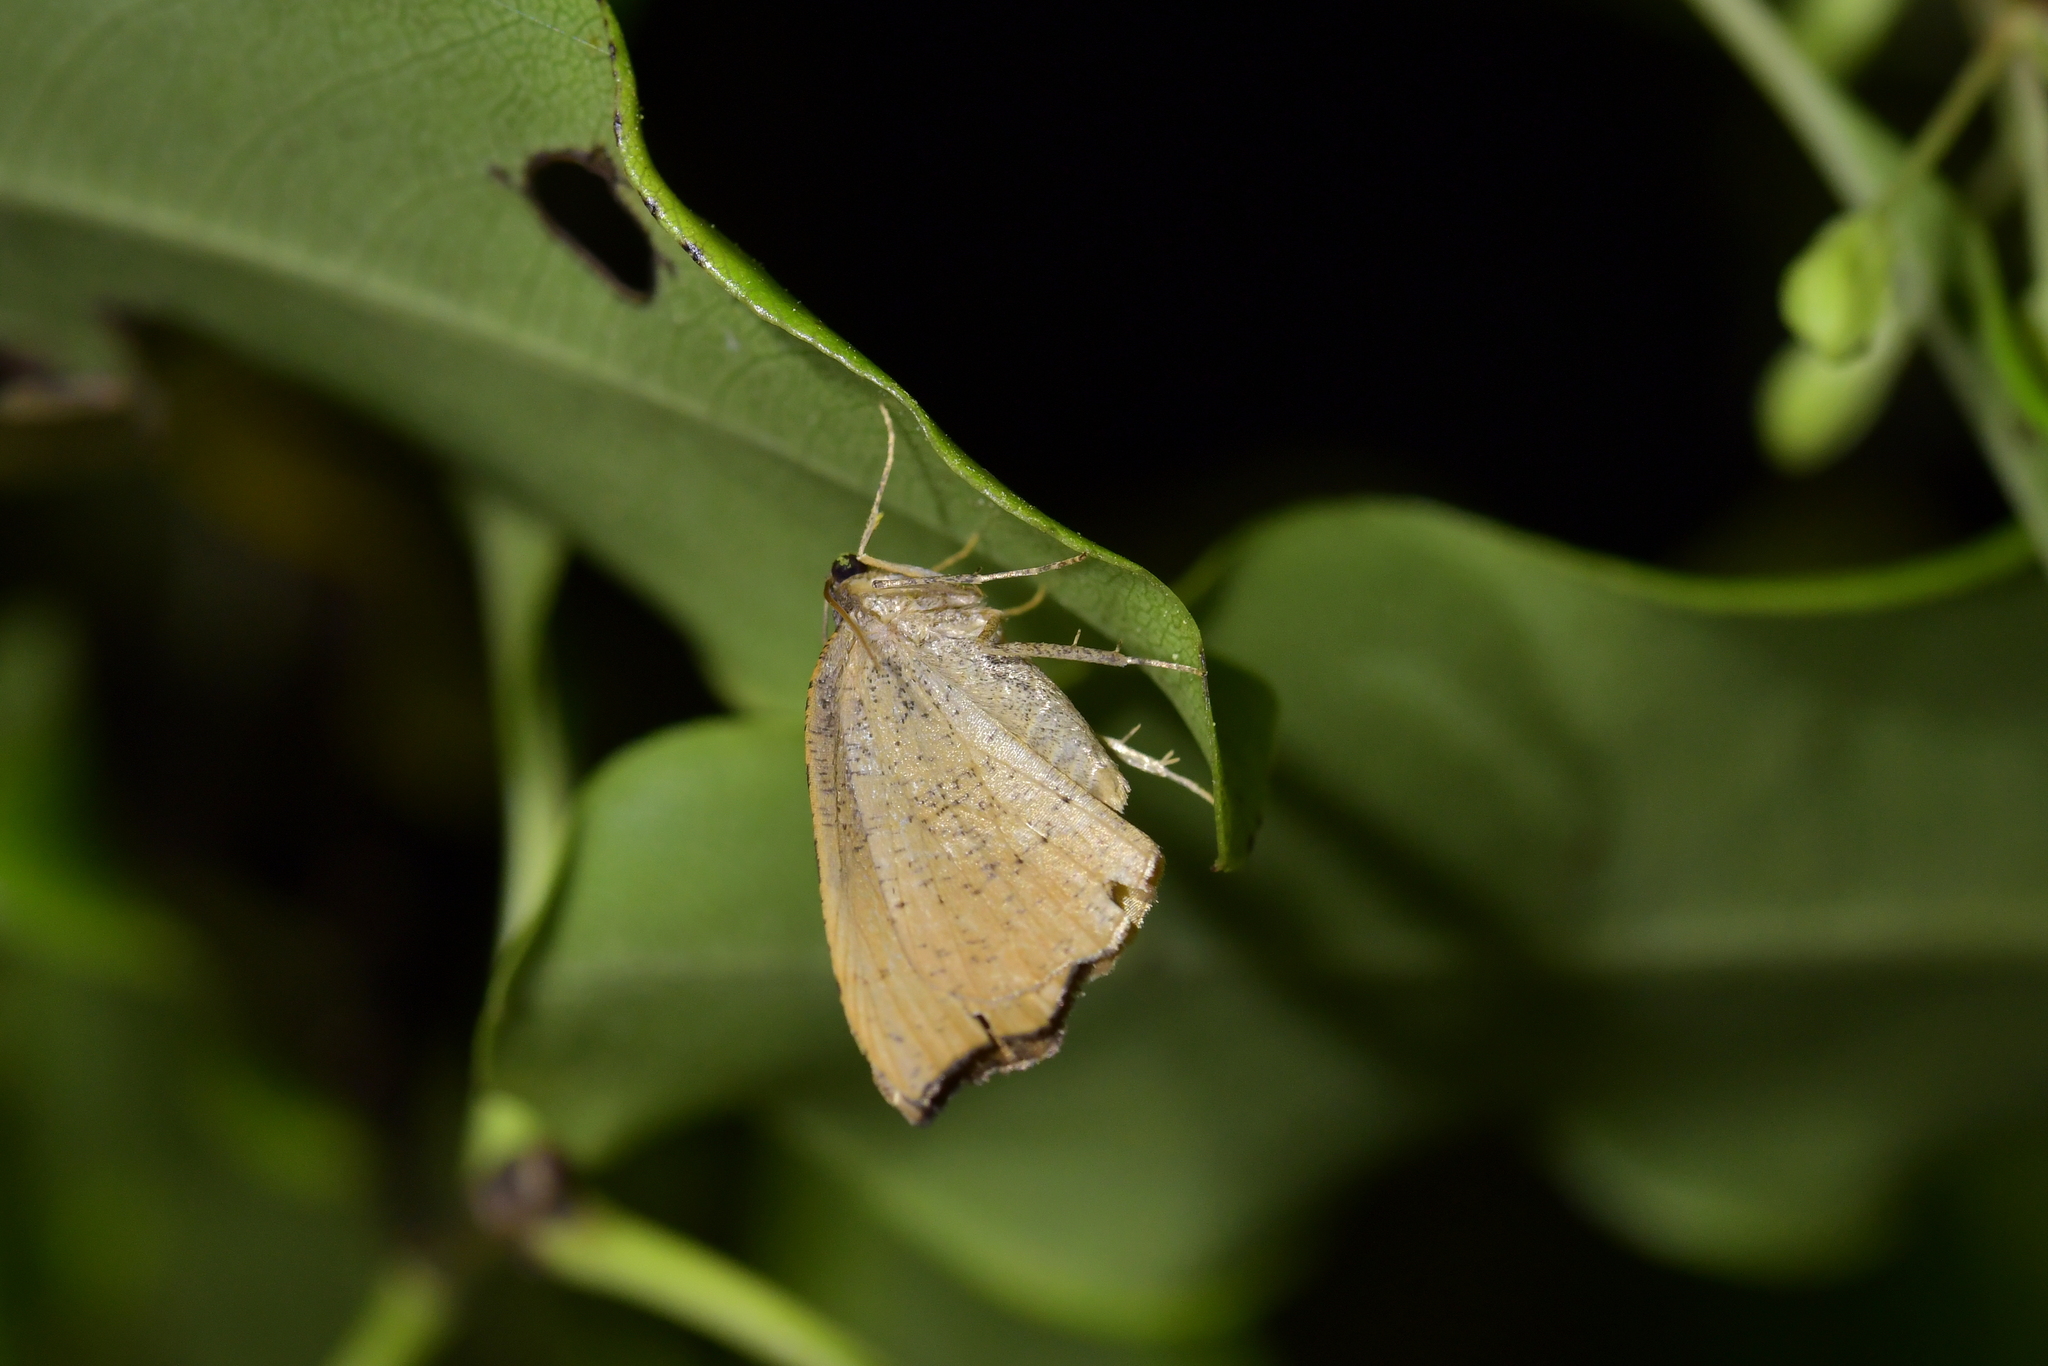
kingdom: Animalia
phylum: Arthropoda
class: Insecta
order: Lepidoptera
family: Geometridae
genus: Sestra
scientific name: Sestra flexata
